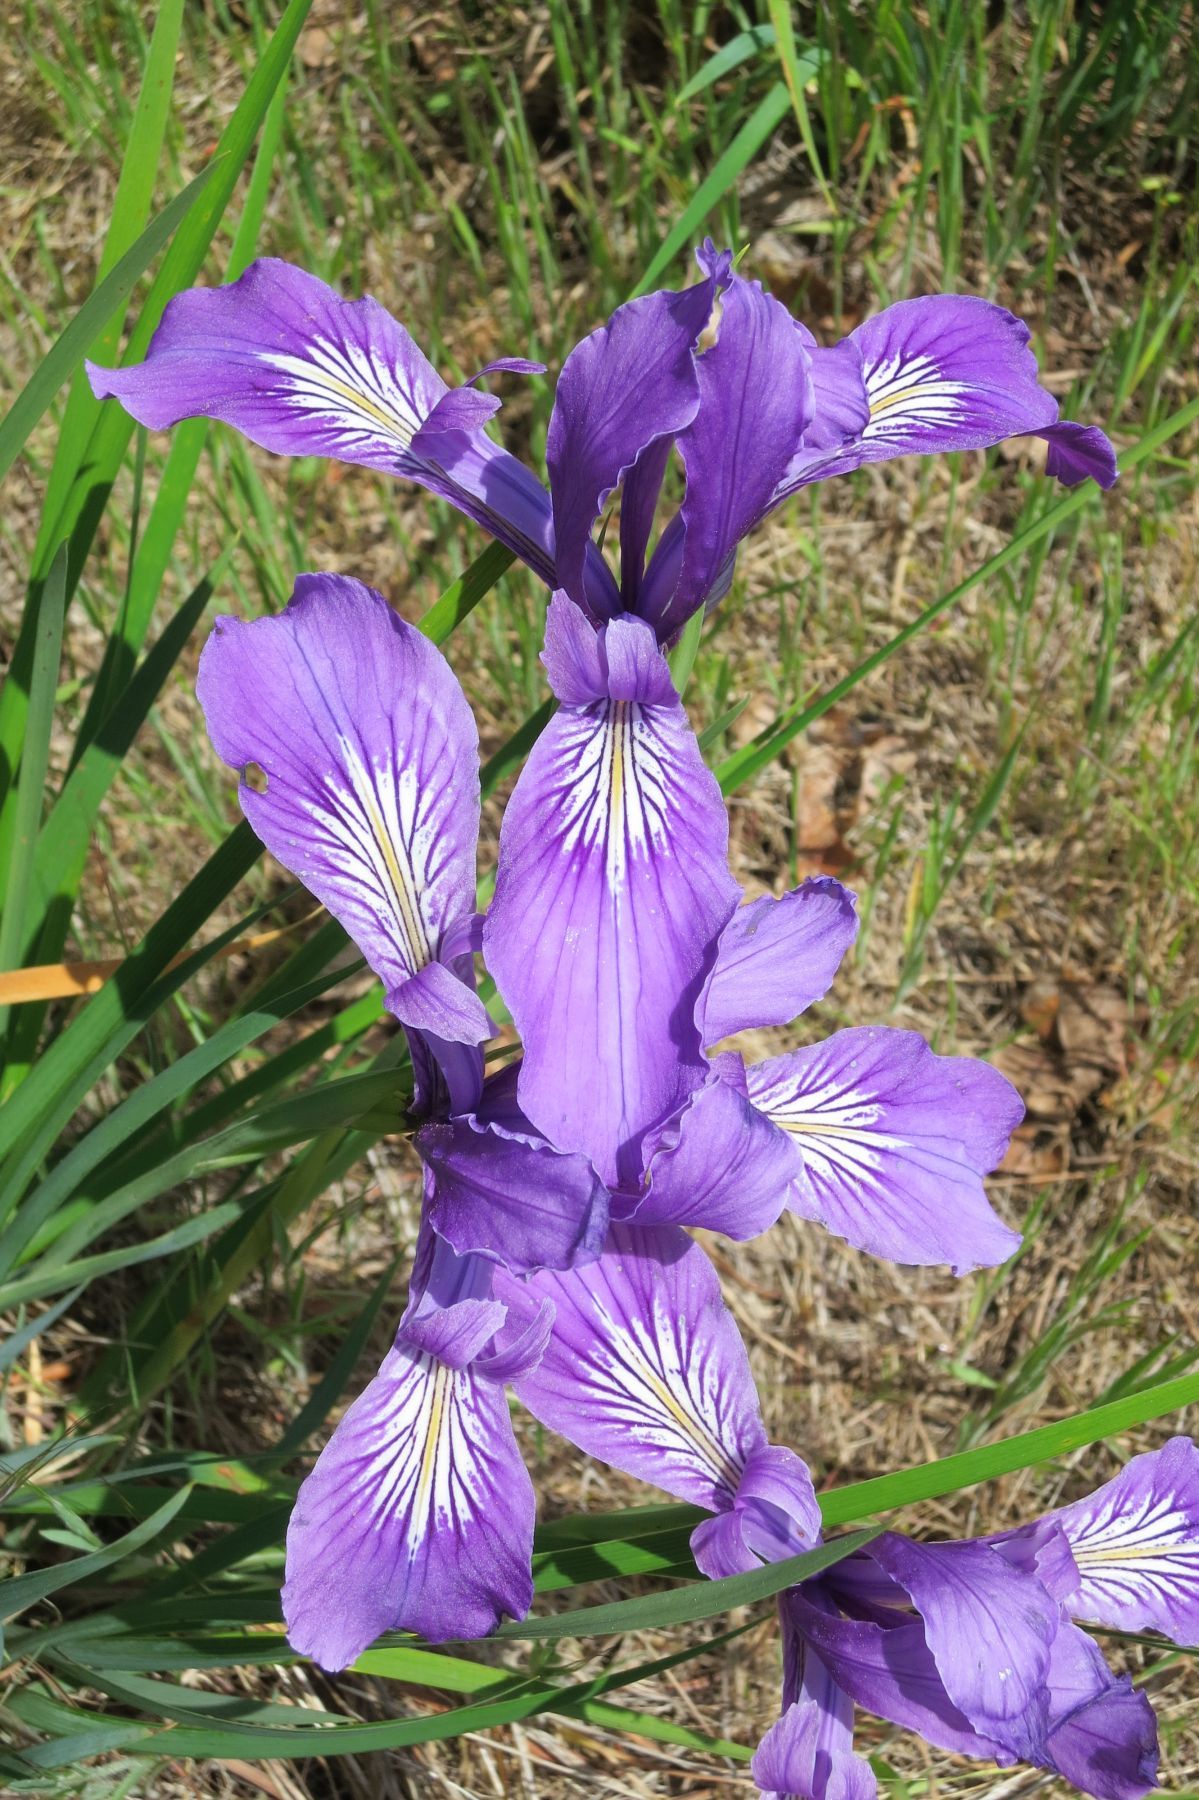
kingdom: Plantae
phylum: Tracheophyta
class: Liliopsida
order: Asparagales
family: Iridaceae
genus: Iris
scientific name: Iris tenax
